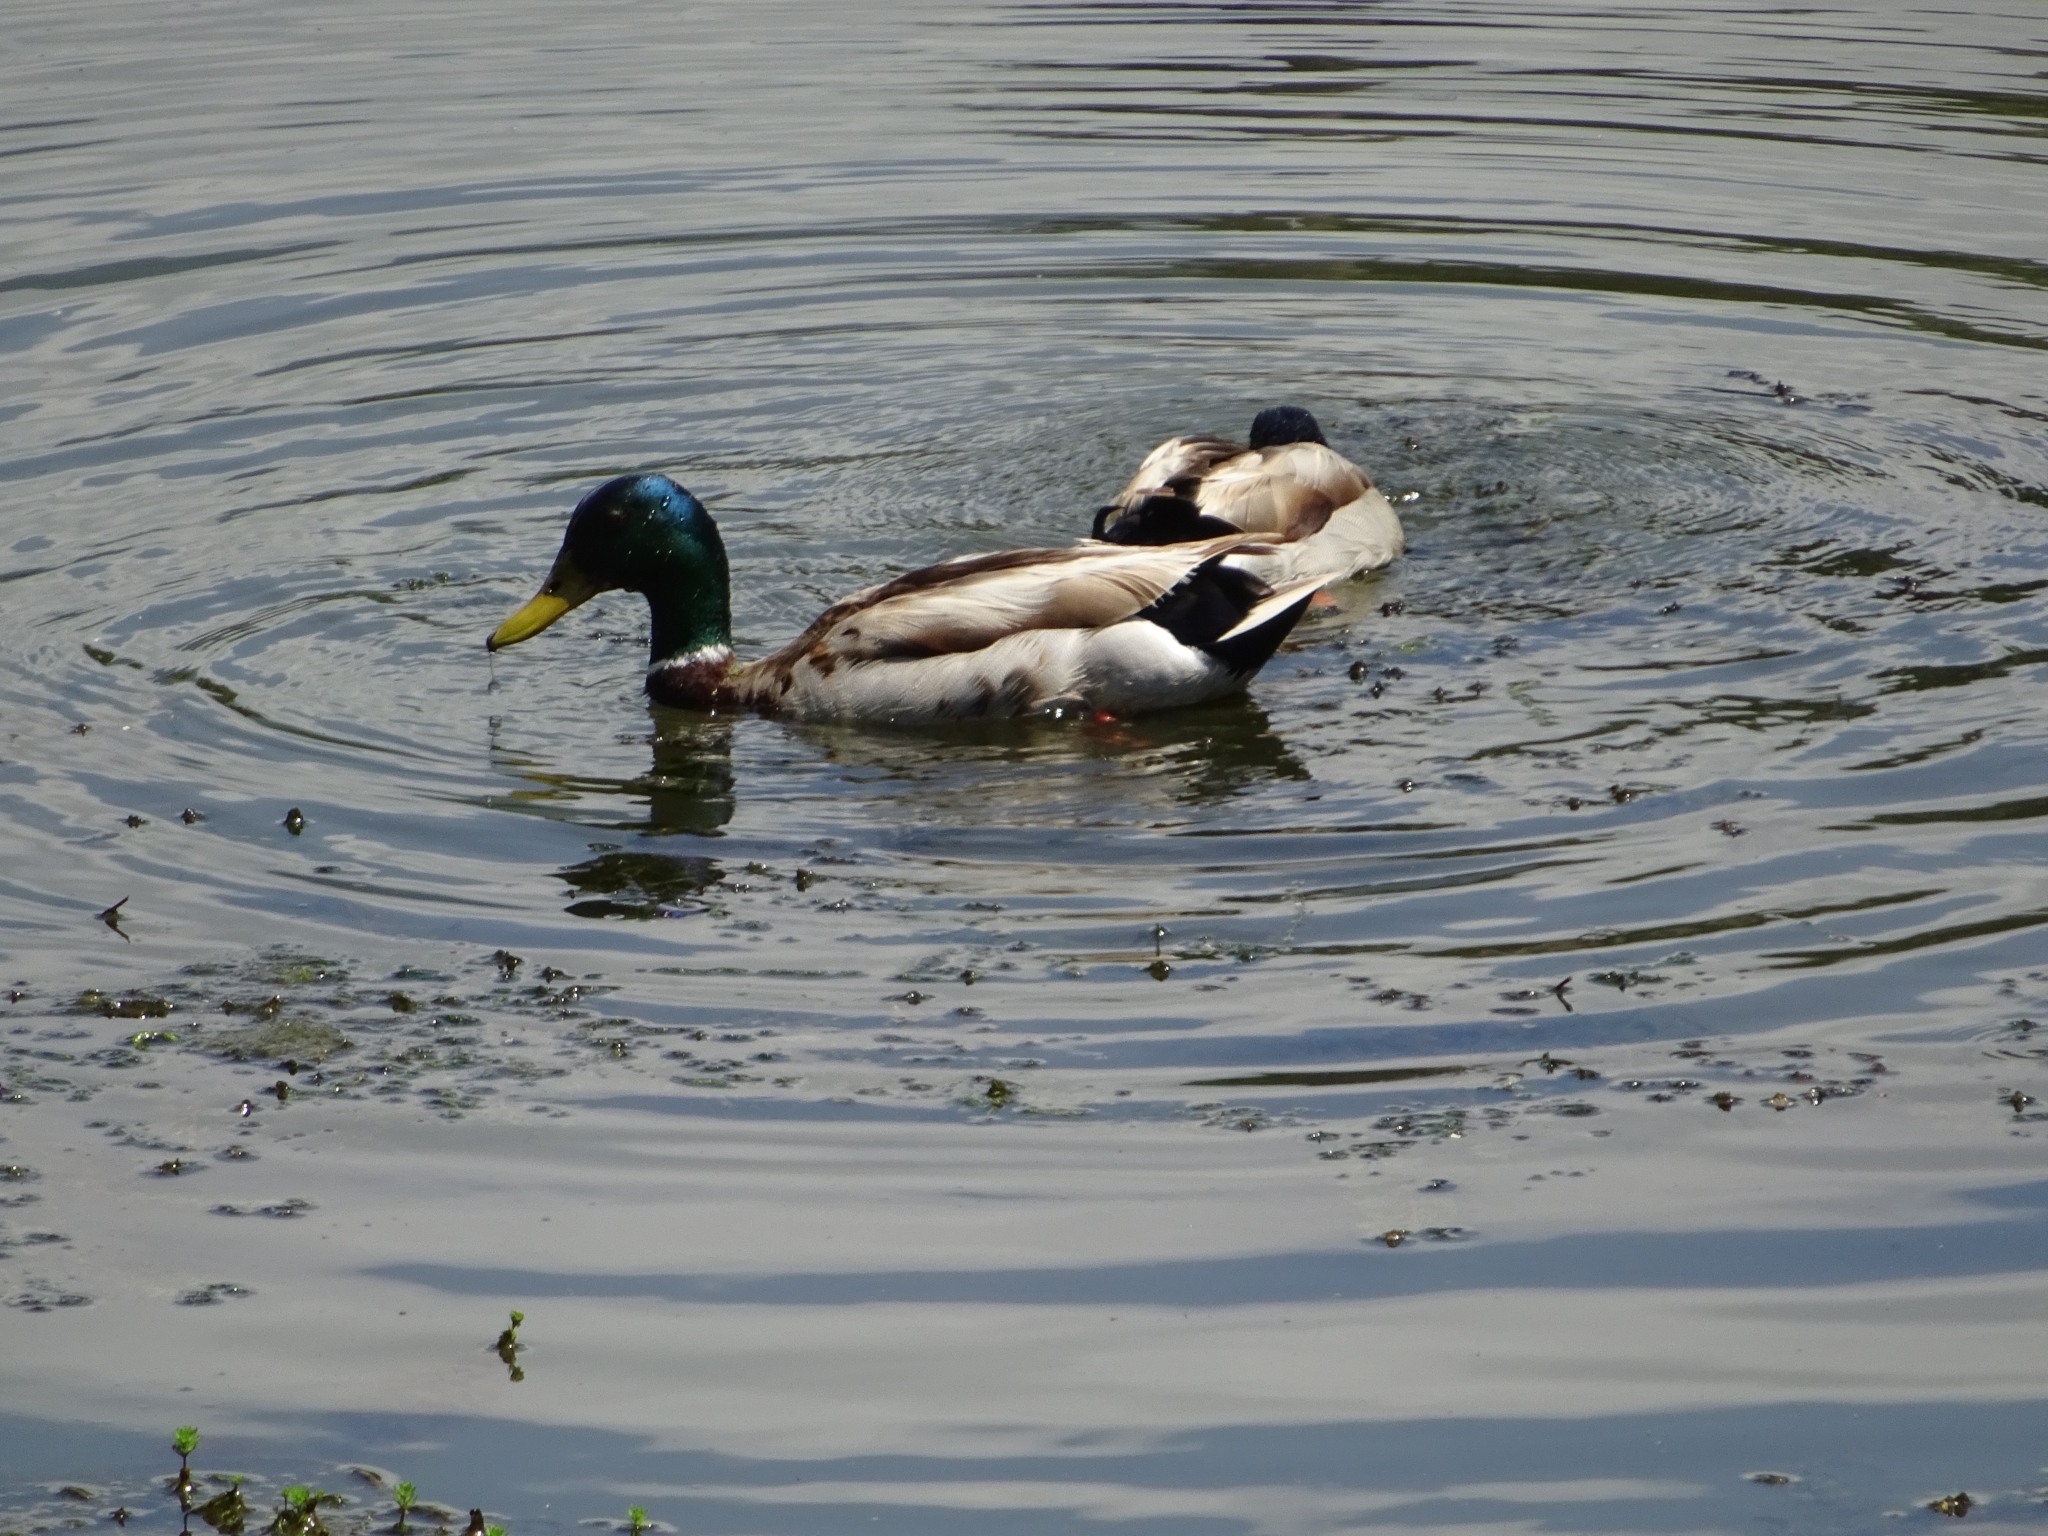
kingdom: Animalia
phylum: Chordata
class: Aves
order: Anseriformes
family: Anatidae
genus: Anas
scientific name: Anas platyrhynchos
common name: Mallard
